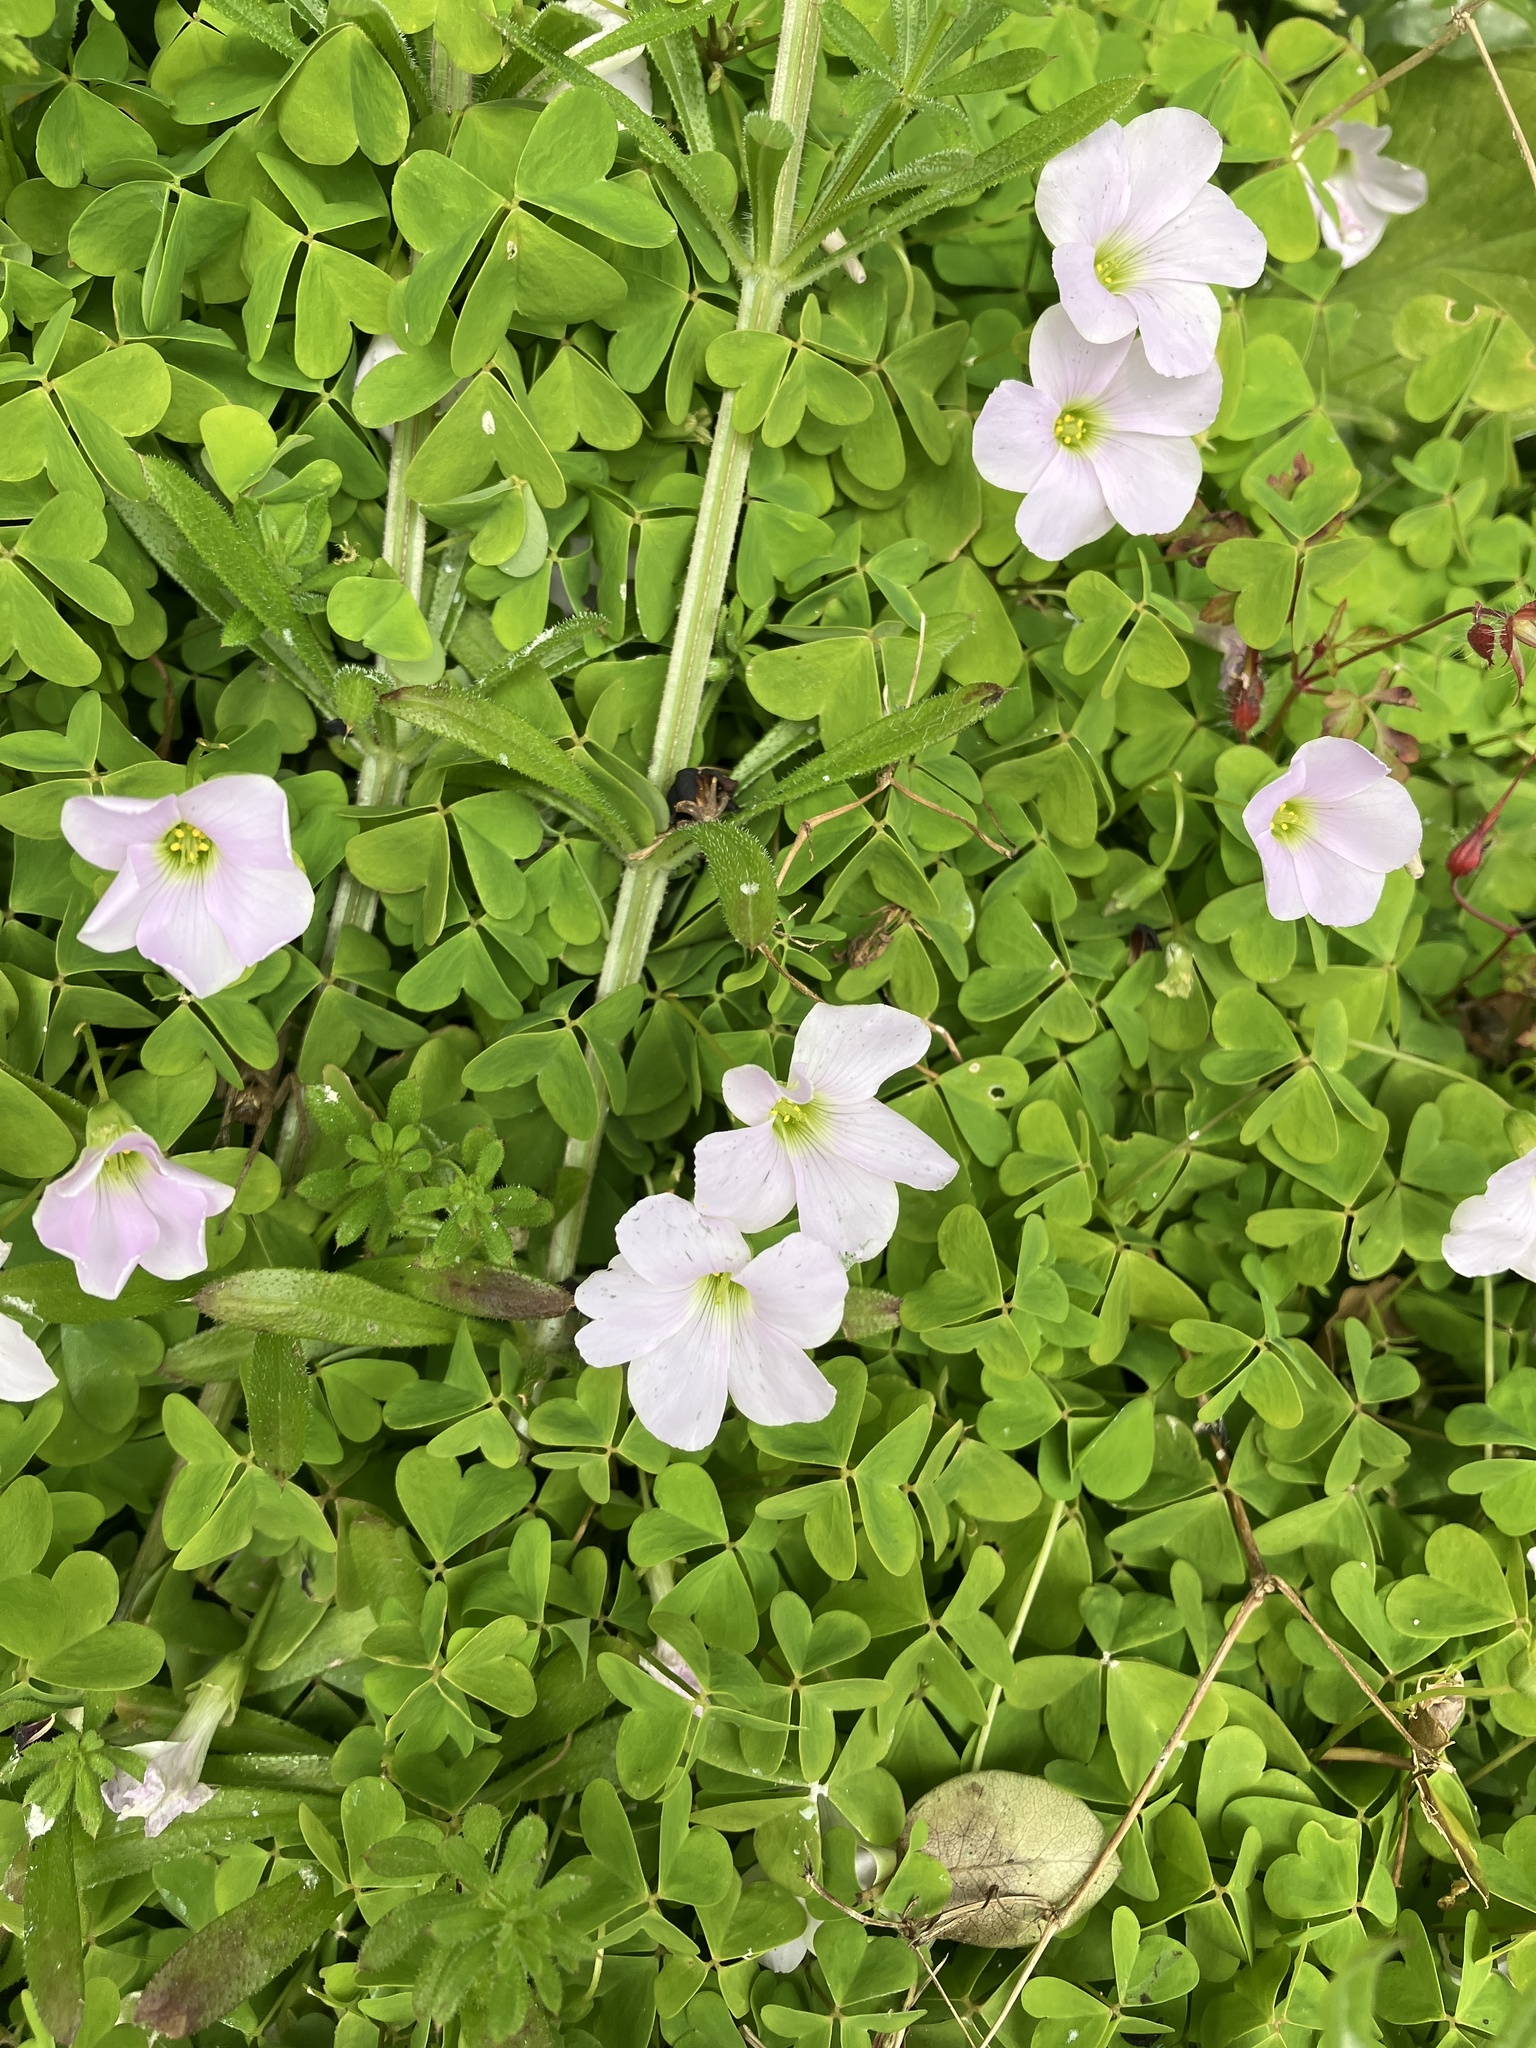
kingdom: Plantae
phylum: Tracheophyta
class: Magnoliopsida
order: Oxalidales
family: Oxalidaceae
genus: Oxalis
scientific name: Oxalis incarnata
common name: Pale pink-sorrel
